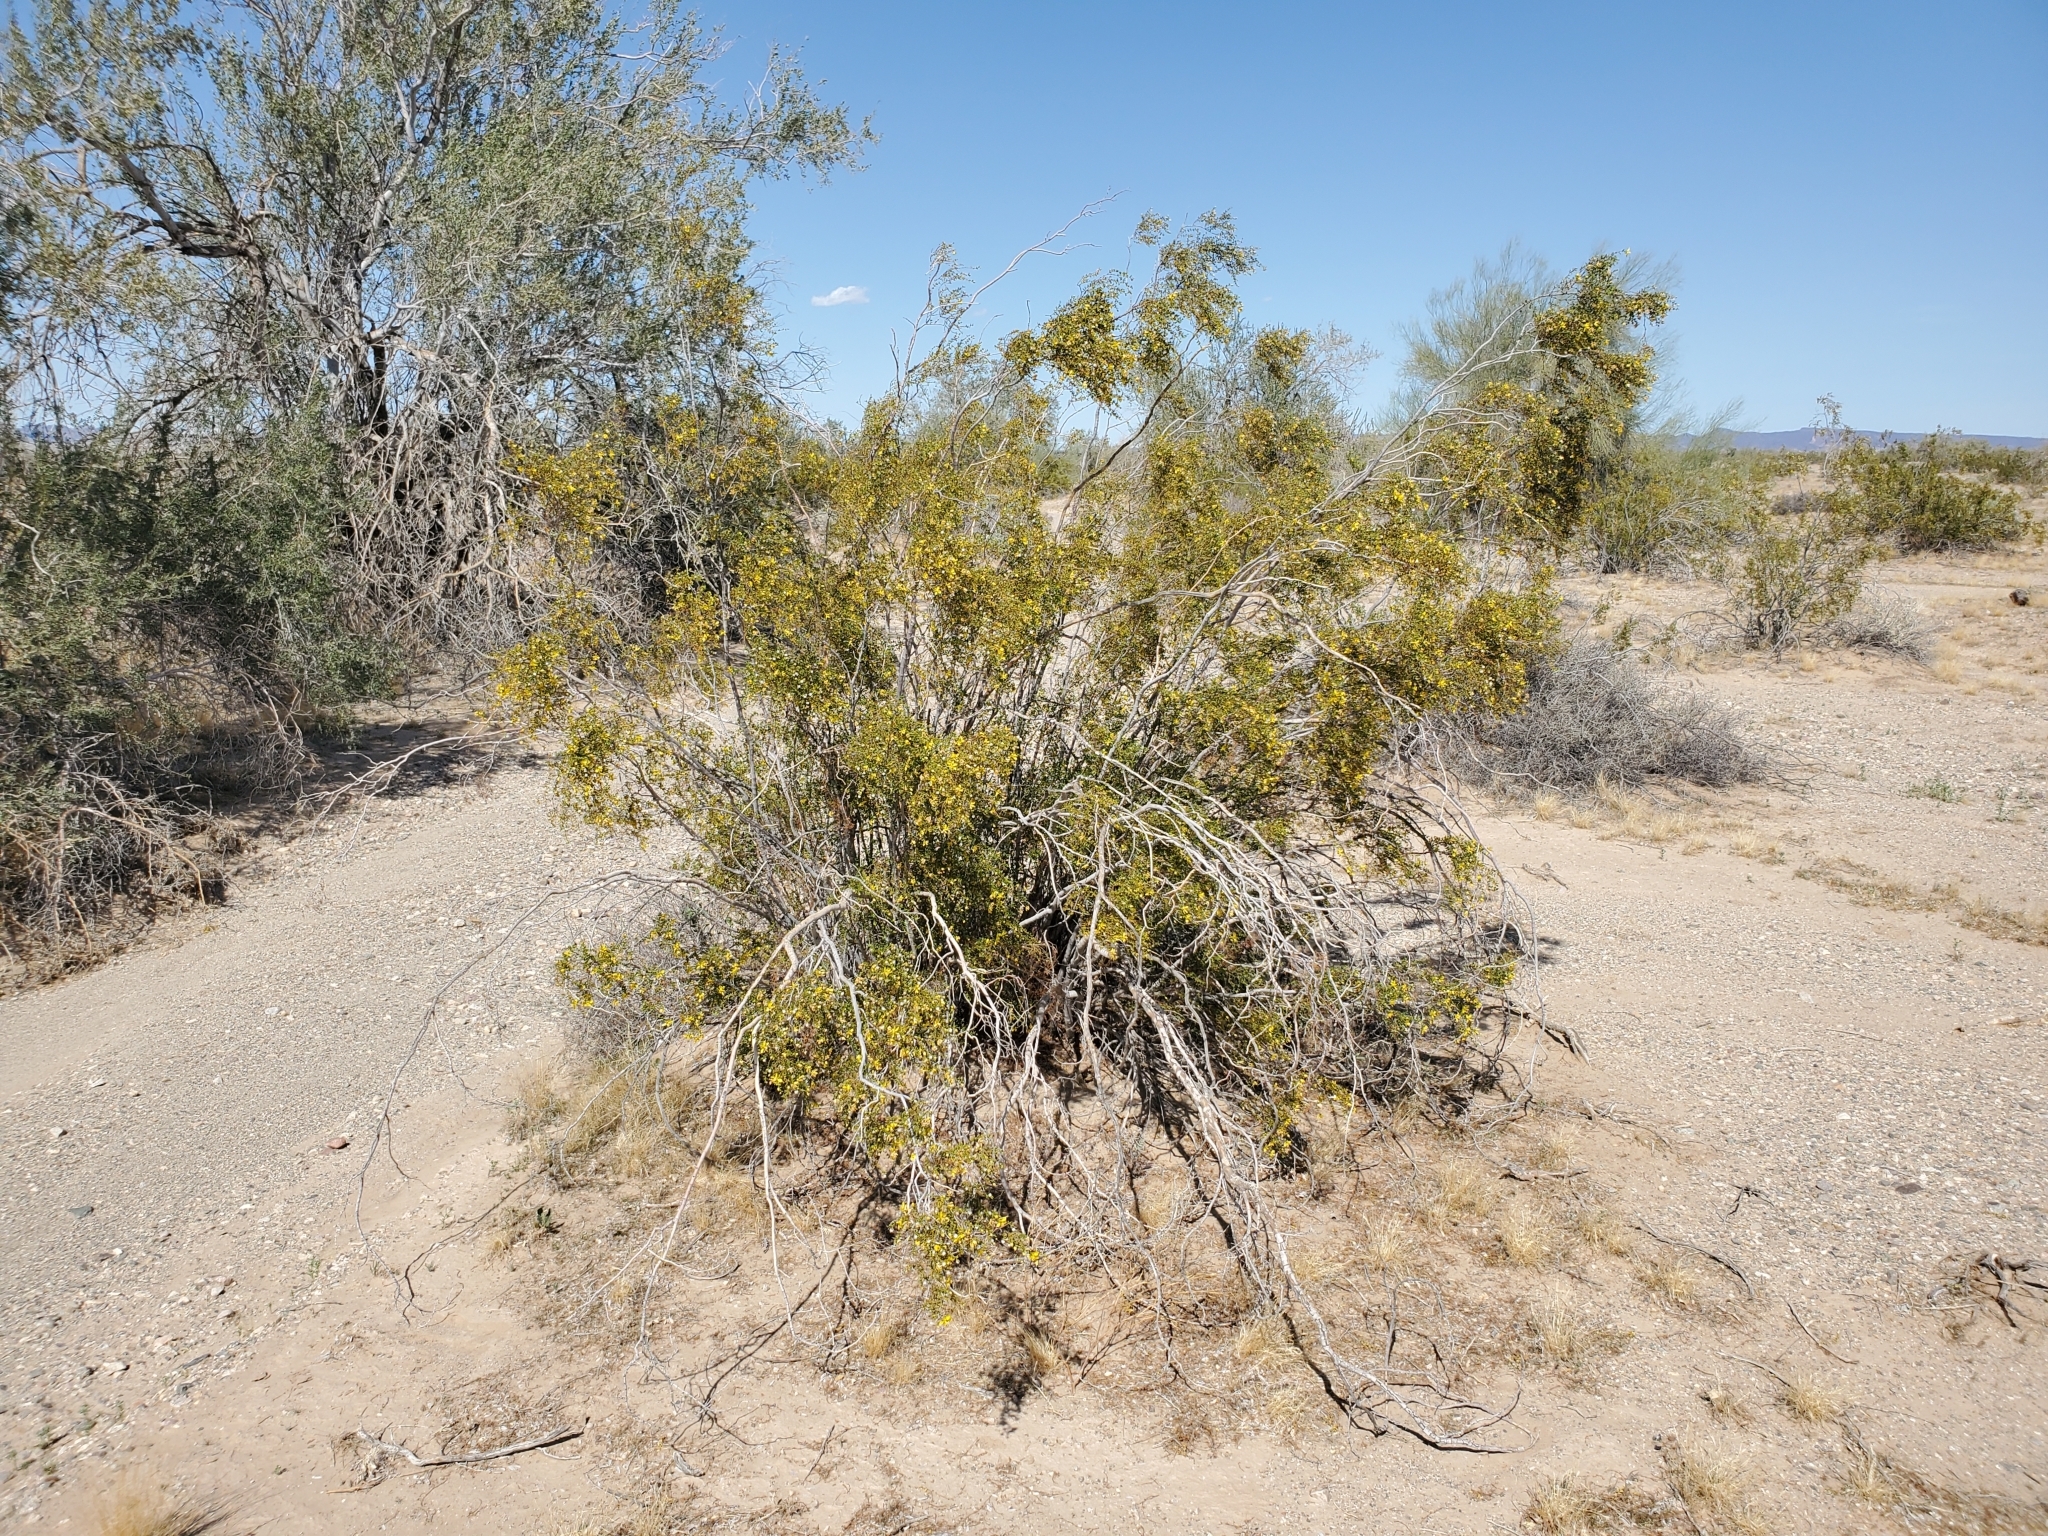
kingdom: Plantae
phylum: Tracheophyta
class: Magnoliopsida
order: Zygophyllales
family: Zygophyllaceae
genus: Larrea
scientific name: Larrea tridentata
